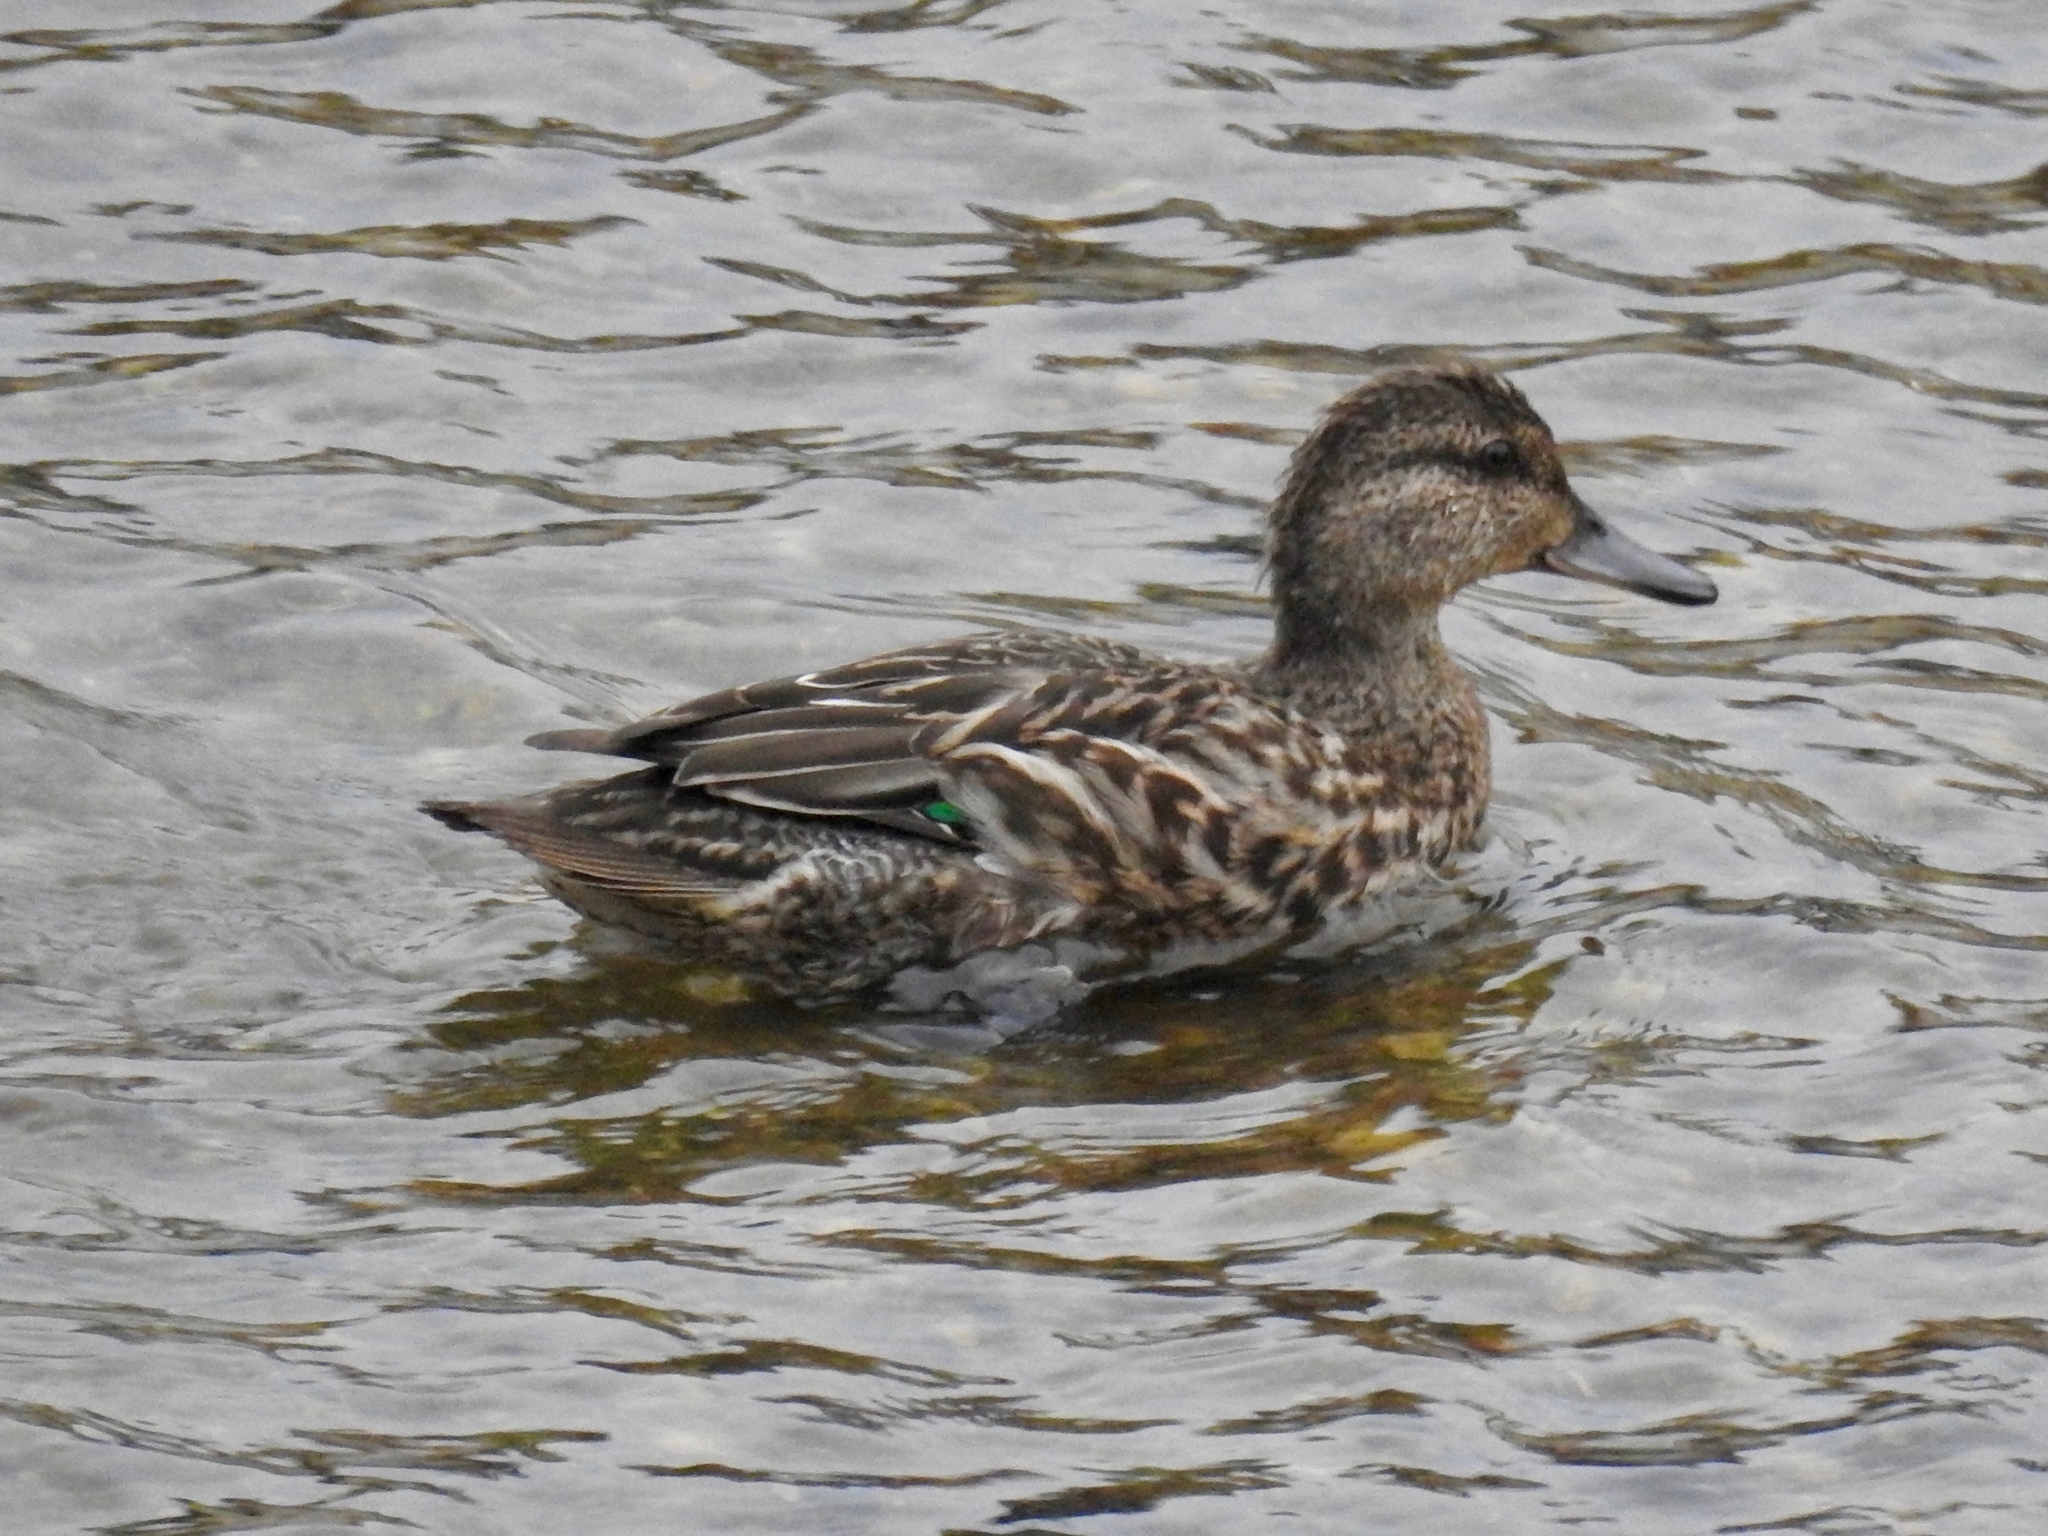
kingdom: Animalia
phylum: Chordata
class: Aves
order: Anseriformes
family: Anatidae
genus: Anas
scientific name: Anas crecca
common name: Eurasian teal
